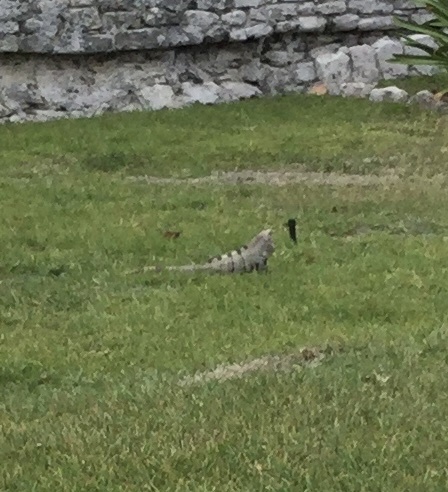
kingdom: Animalia
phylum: Chordata
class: Squamata
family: Iguanidae
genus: Ctenosaura
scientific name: Ctenosaura similis
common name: Black spiny-tailed iguana
